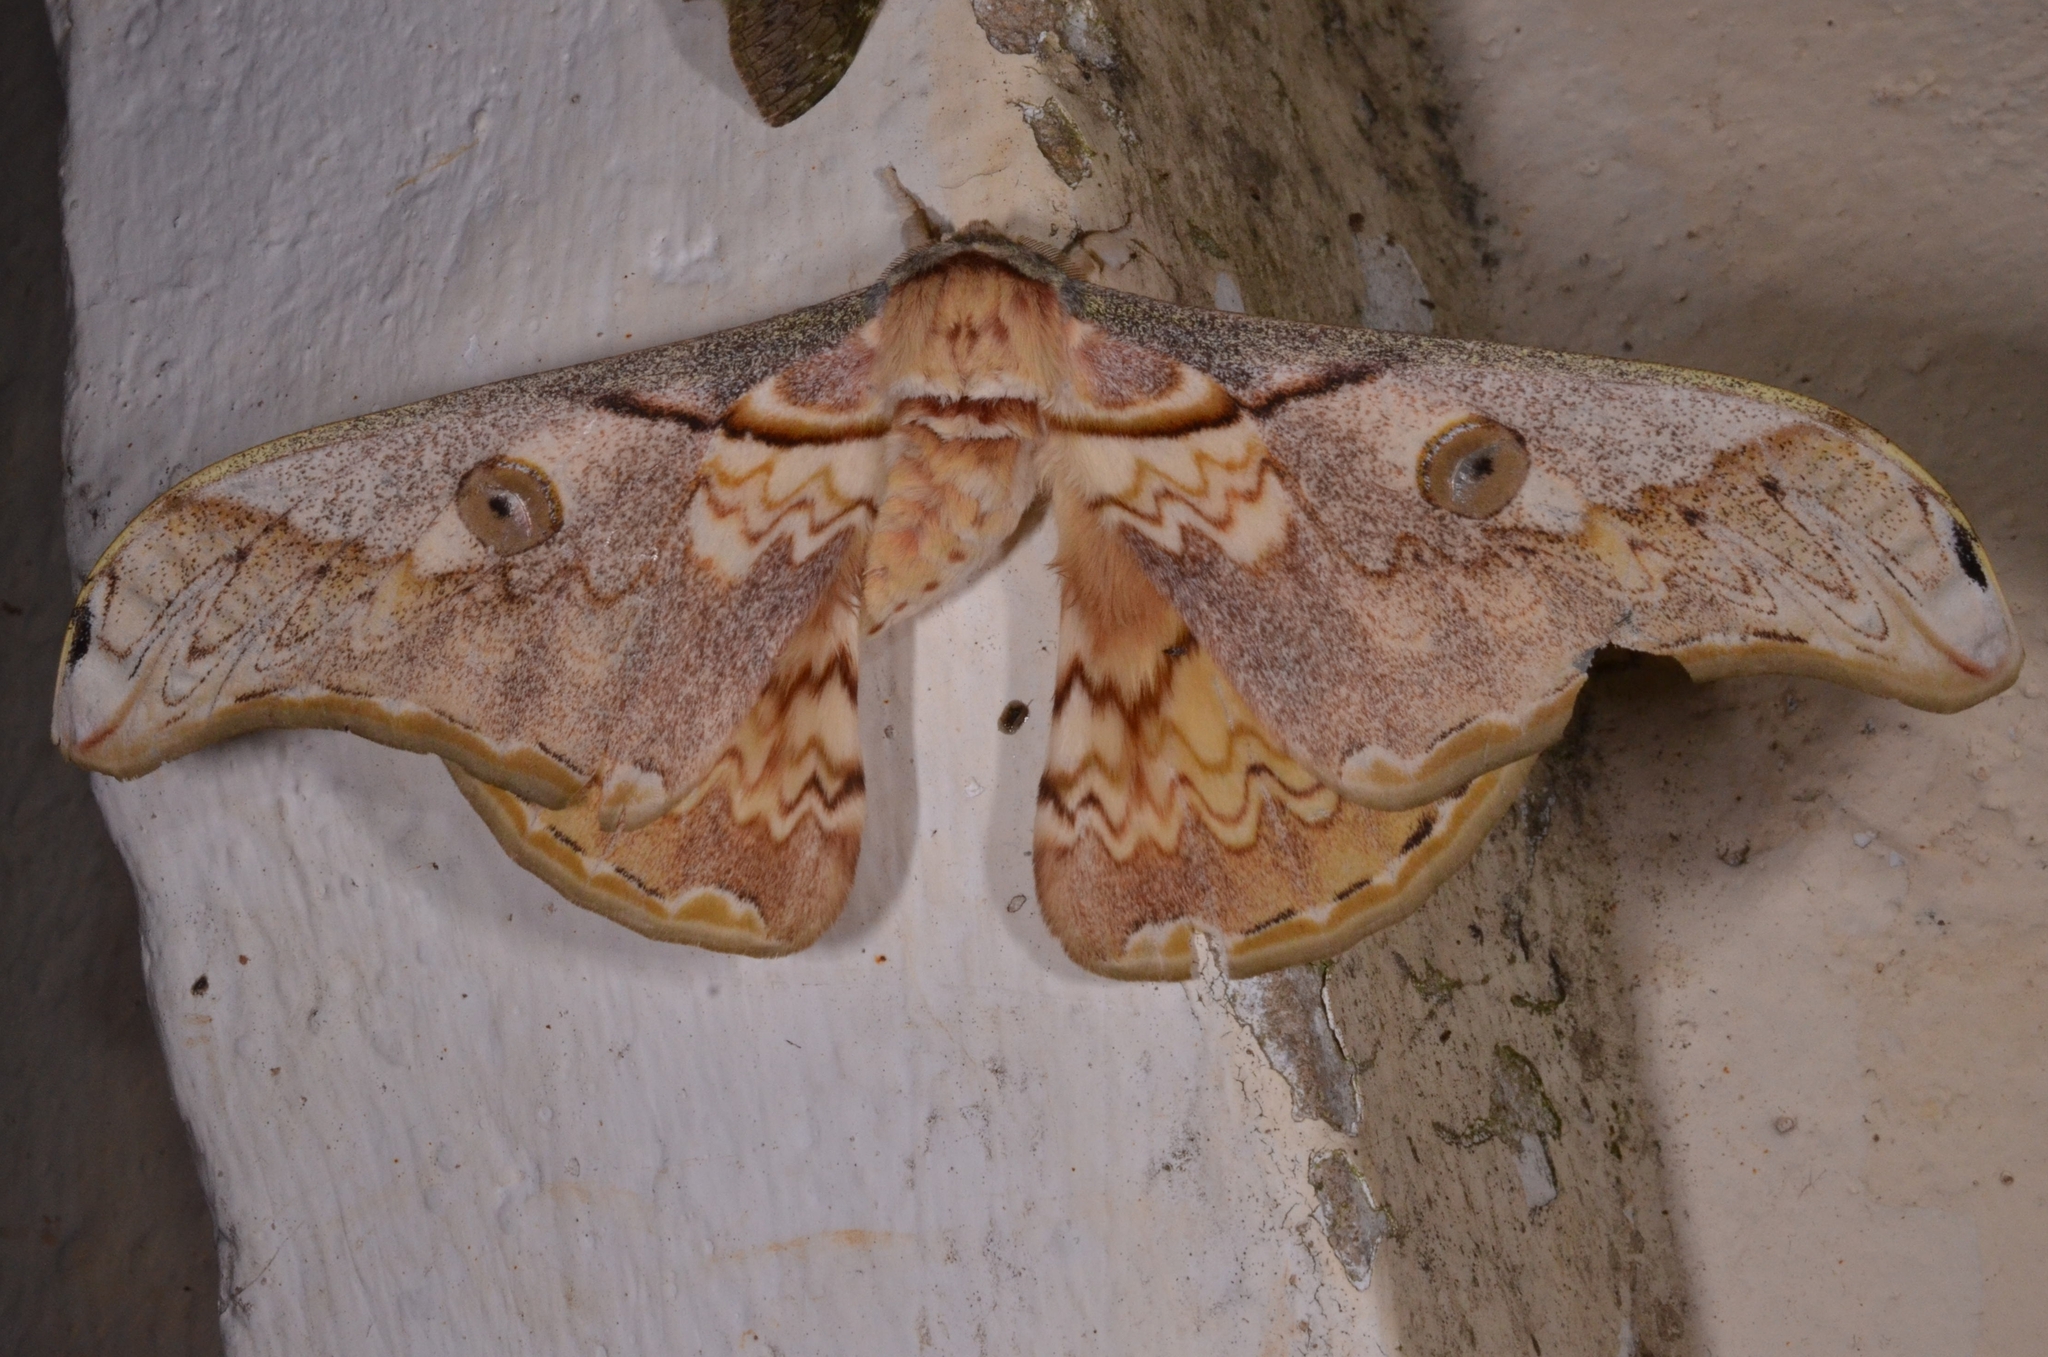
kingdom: Animalia
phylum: Arthropoda
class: Insecta
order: Lepidoptera
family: Saturniidae
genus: Rinaca
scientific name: Rinaca thibeta
